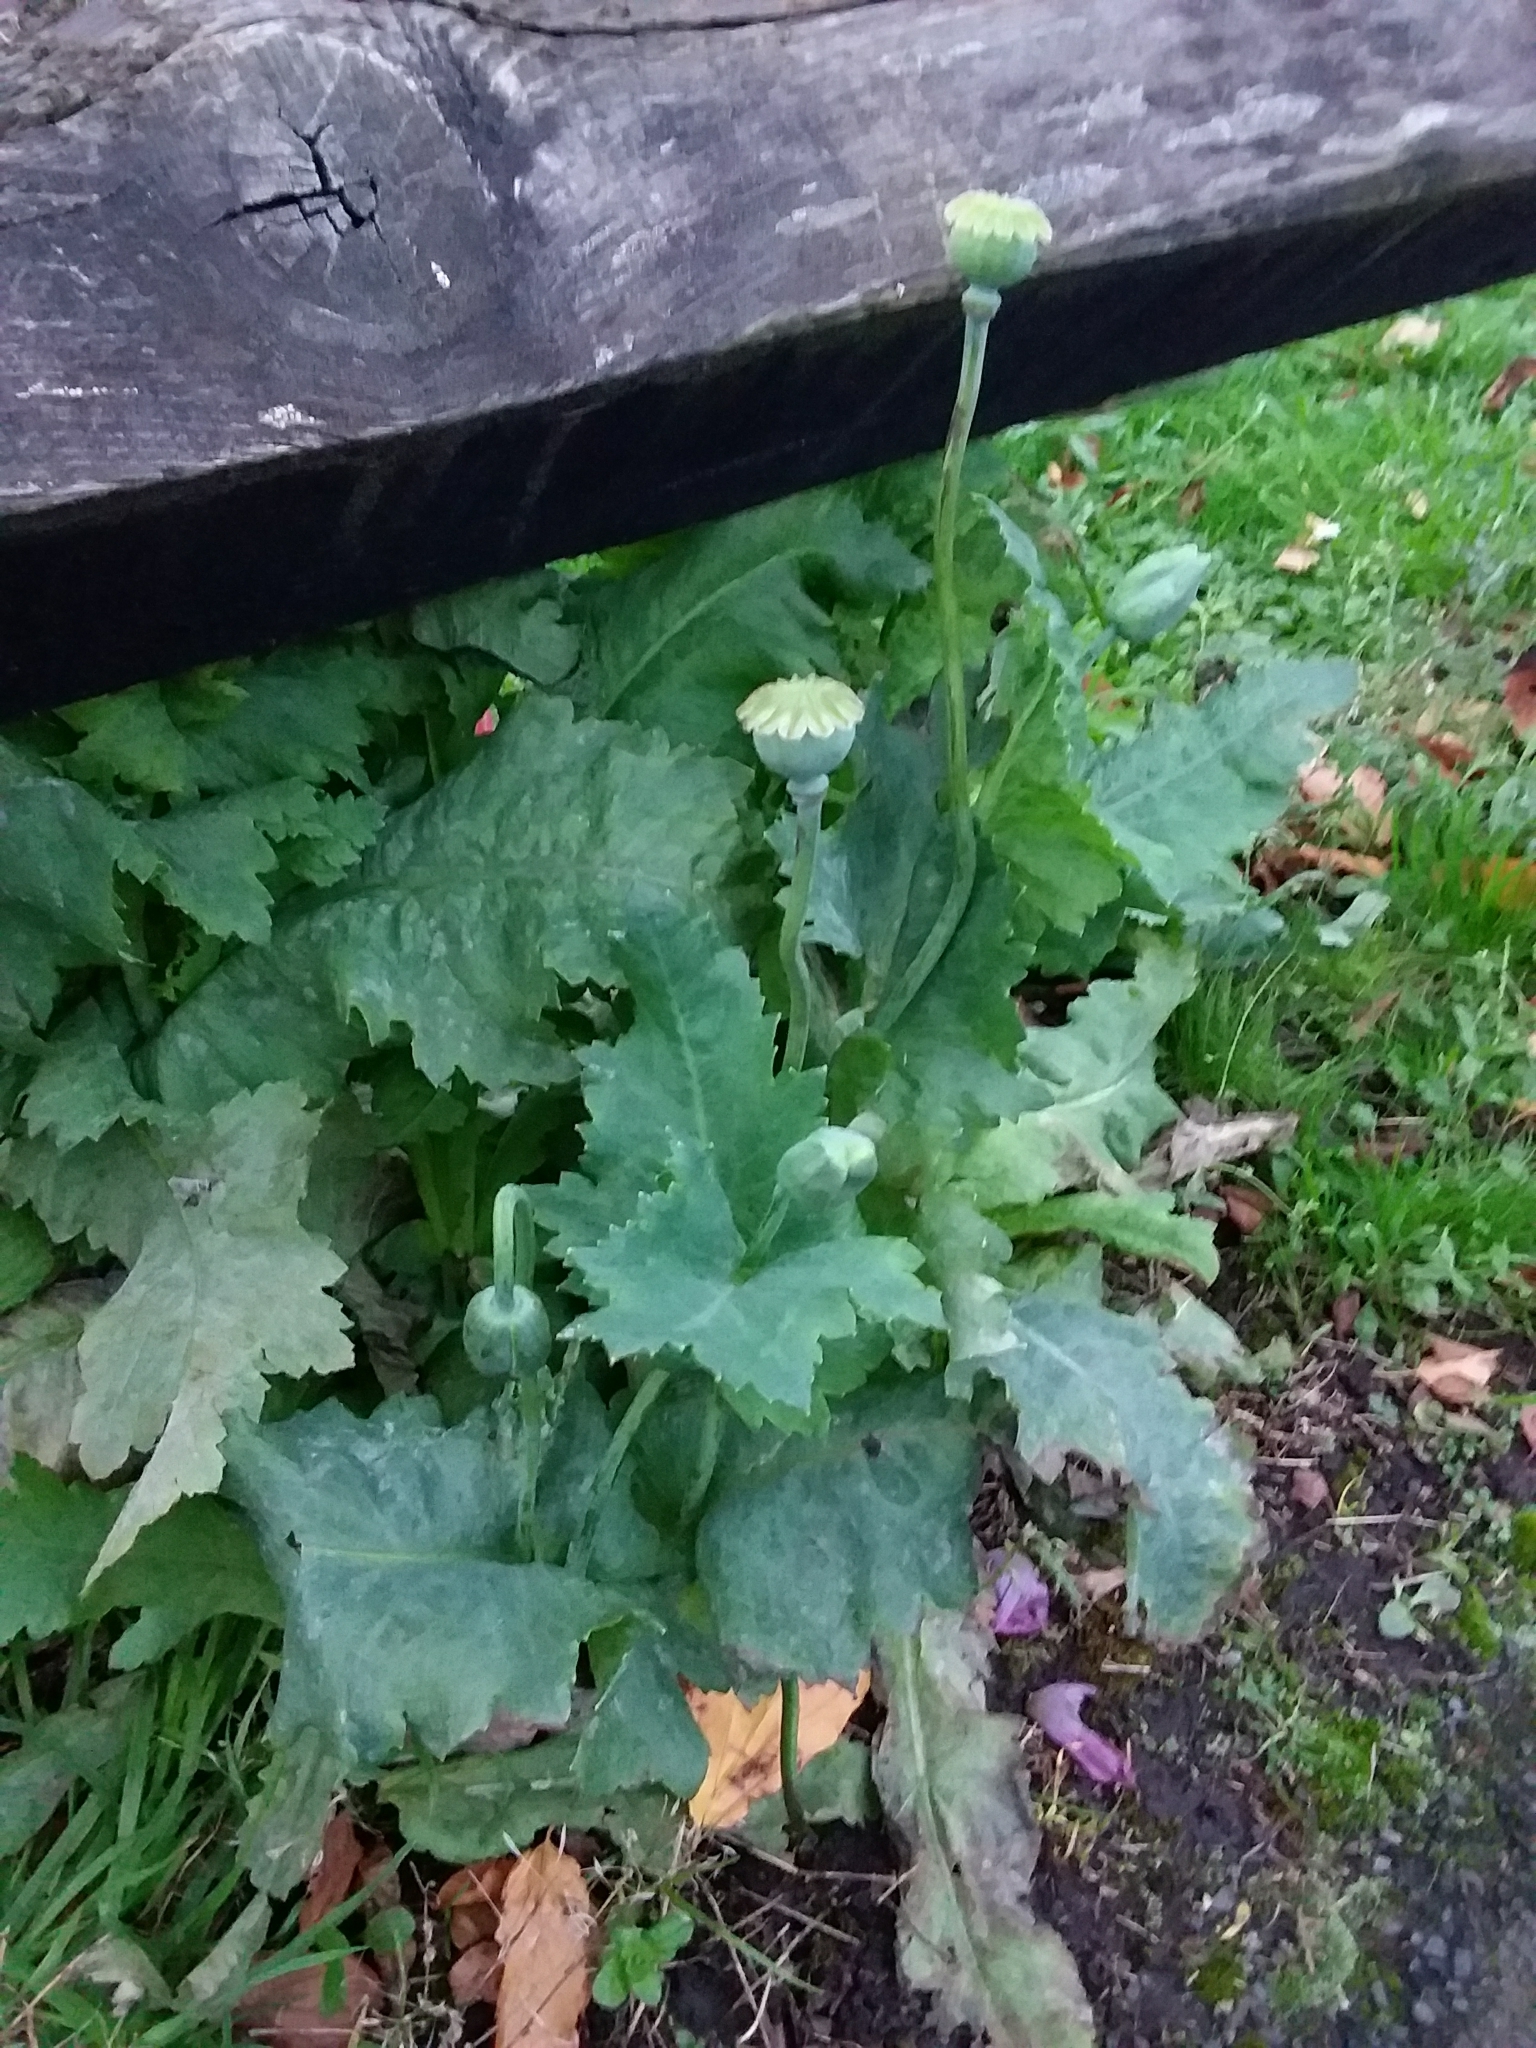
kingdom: Plantae
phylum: Tracheophyta
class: Magnoliopsida
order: Ranunculales
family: Papaveraceae
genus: Papaver
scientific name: Papaver somniferum
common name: Opium poppy
